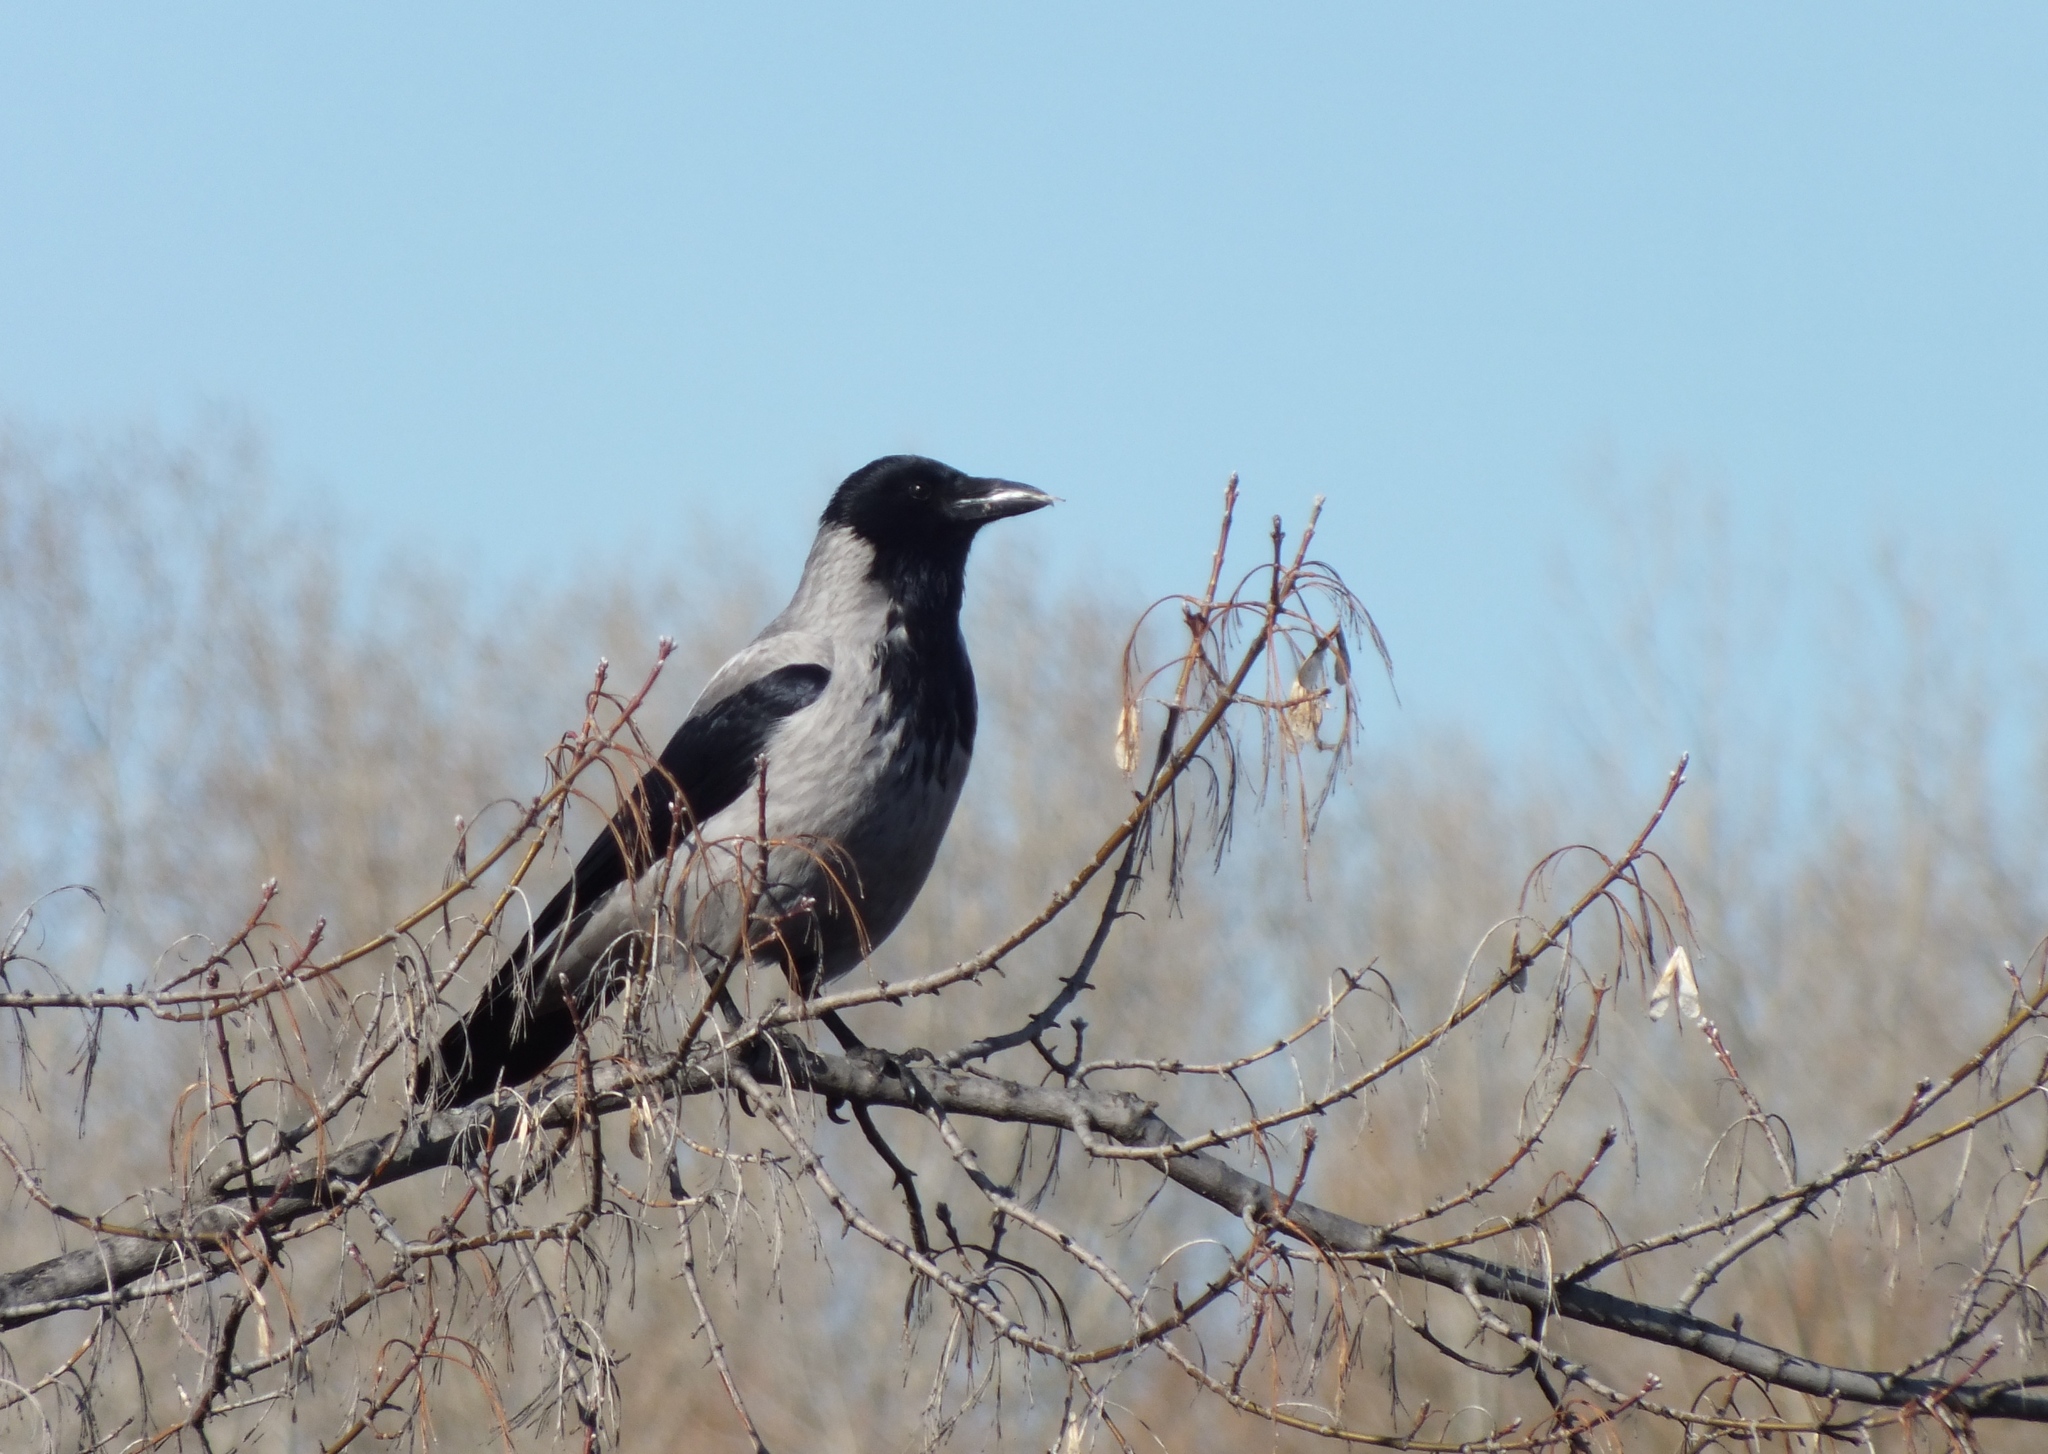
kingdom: Animalia
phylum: Chordata
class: Aves
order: Passeriformes
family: Corvidae
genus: Corvus
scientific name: Corvus cornix
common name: Hooded crow
